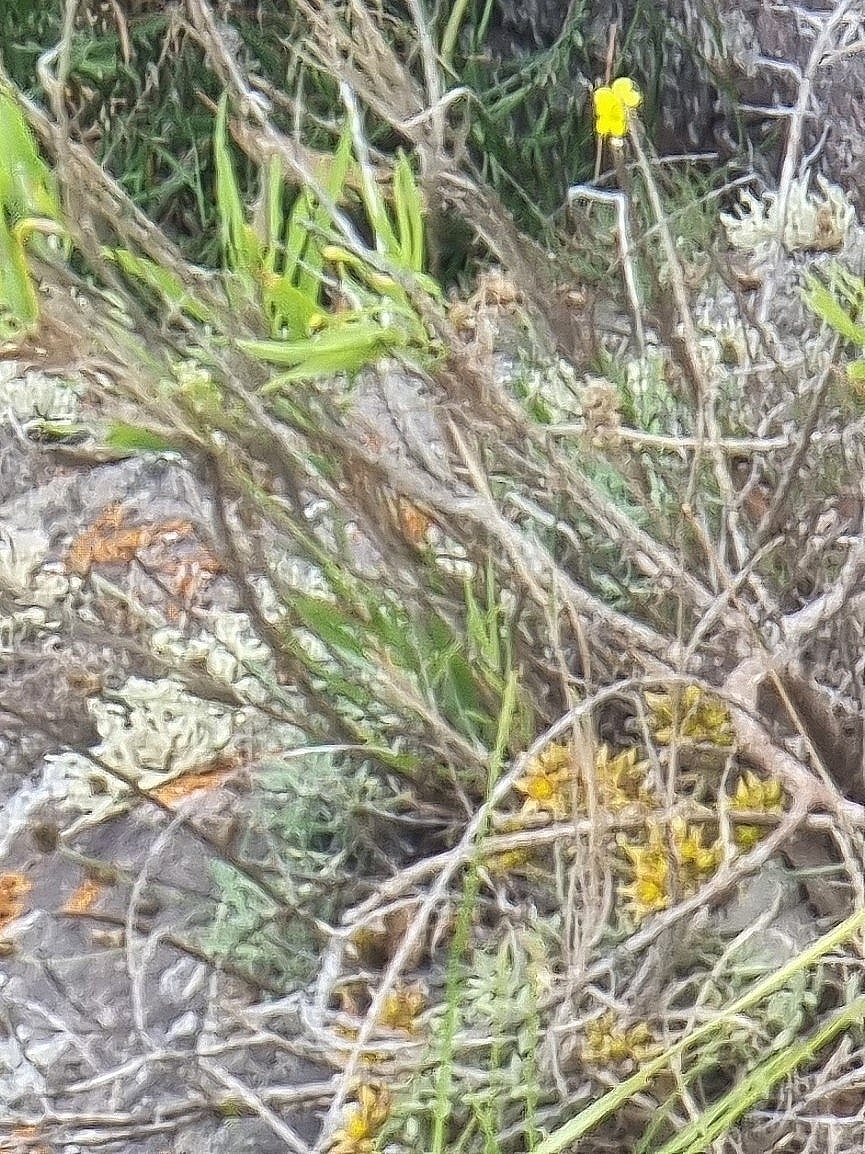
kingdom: Plantae
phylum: Tracheophyta
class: Magnoliopsida
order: Saxifragales
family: Crassulaceae
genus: Sedum
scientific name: Sedum fusiforme
